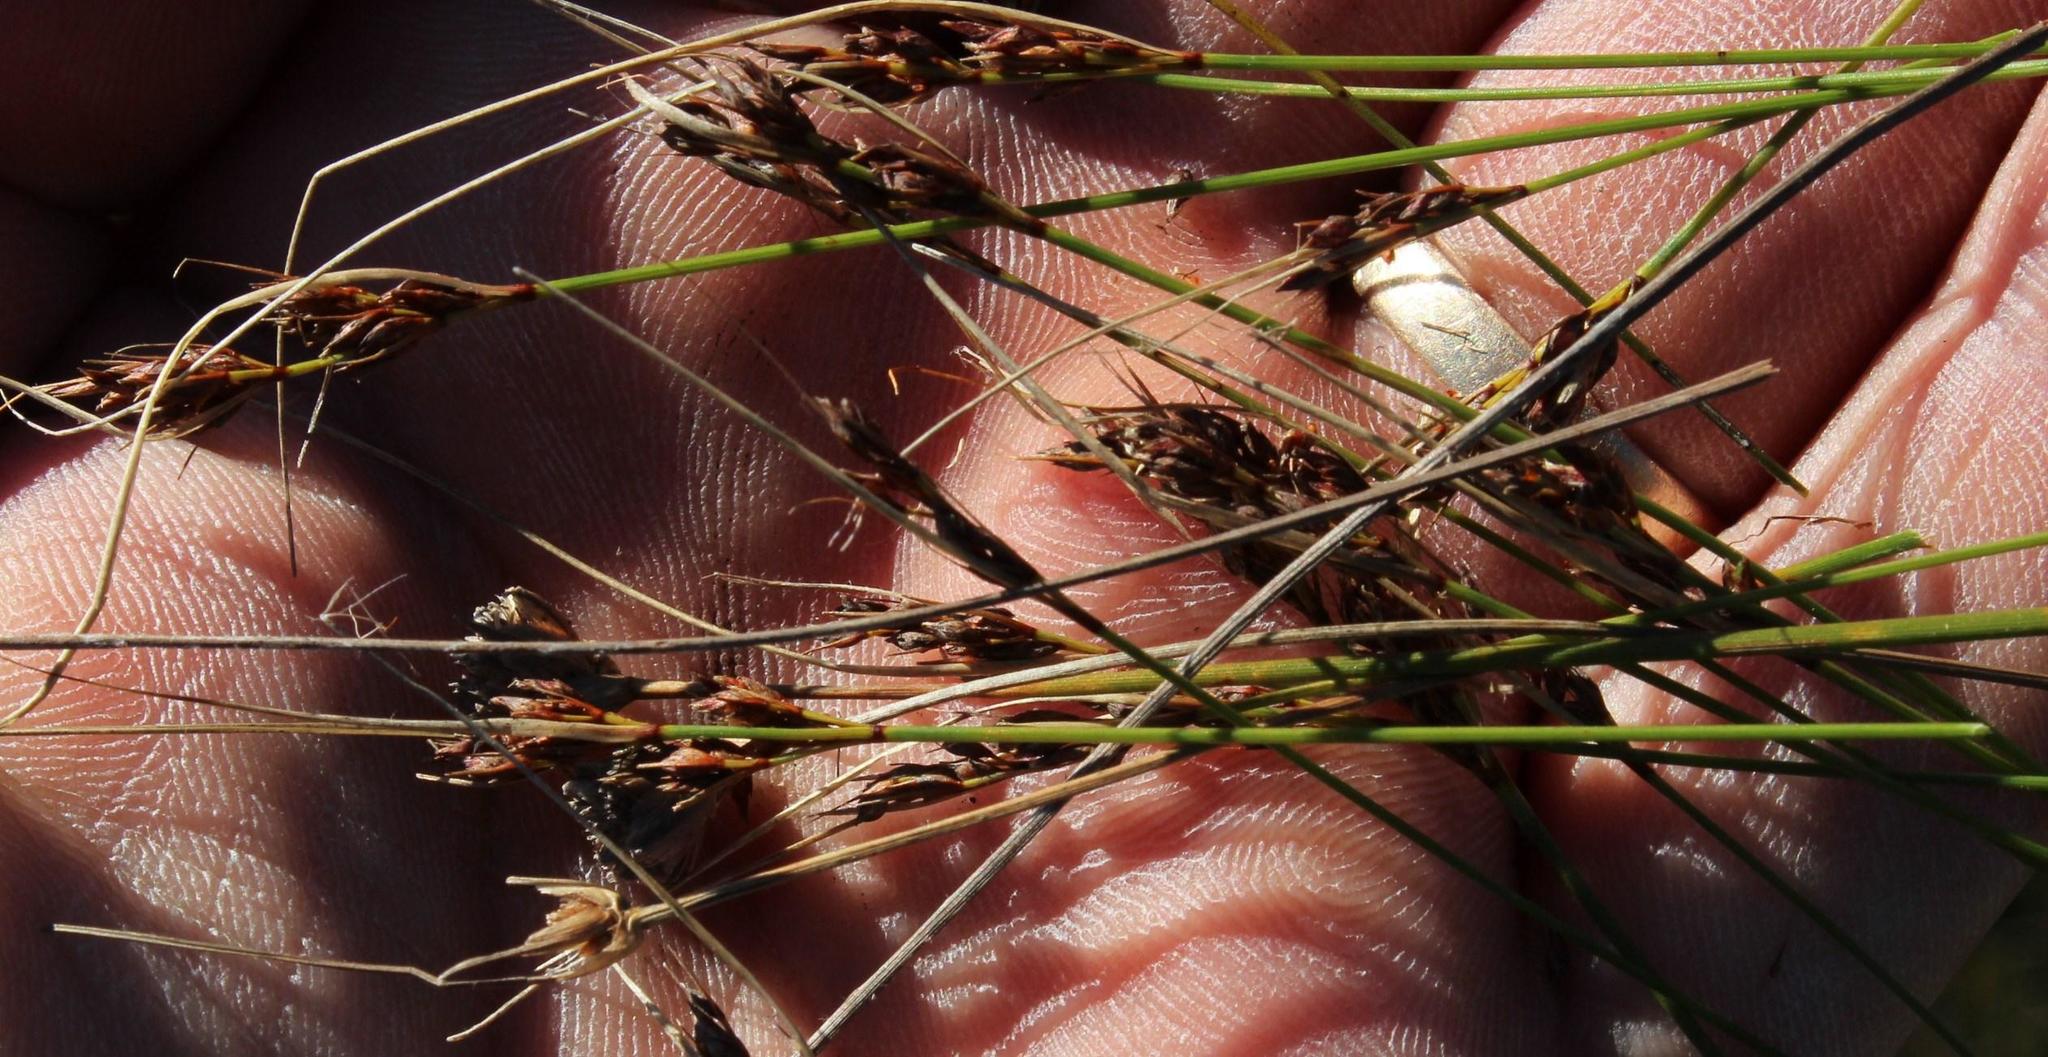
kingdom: Plantae
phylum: Tracheophyta
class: Liliopsida
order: Poales
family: Cyperaceae
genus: Schoenus
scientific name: Schoenus prophyllus
